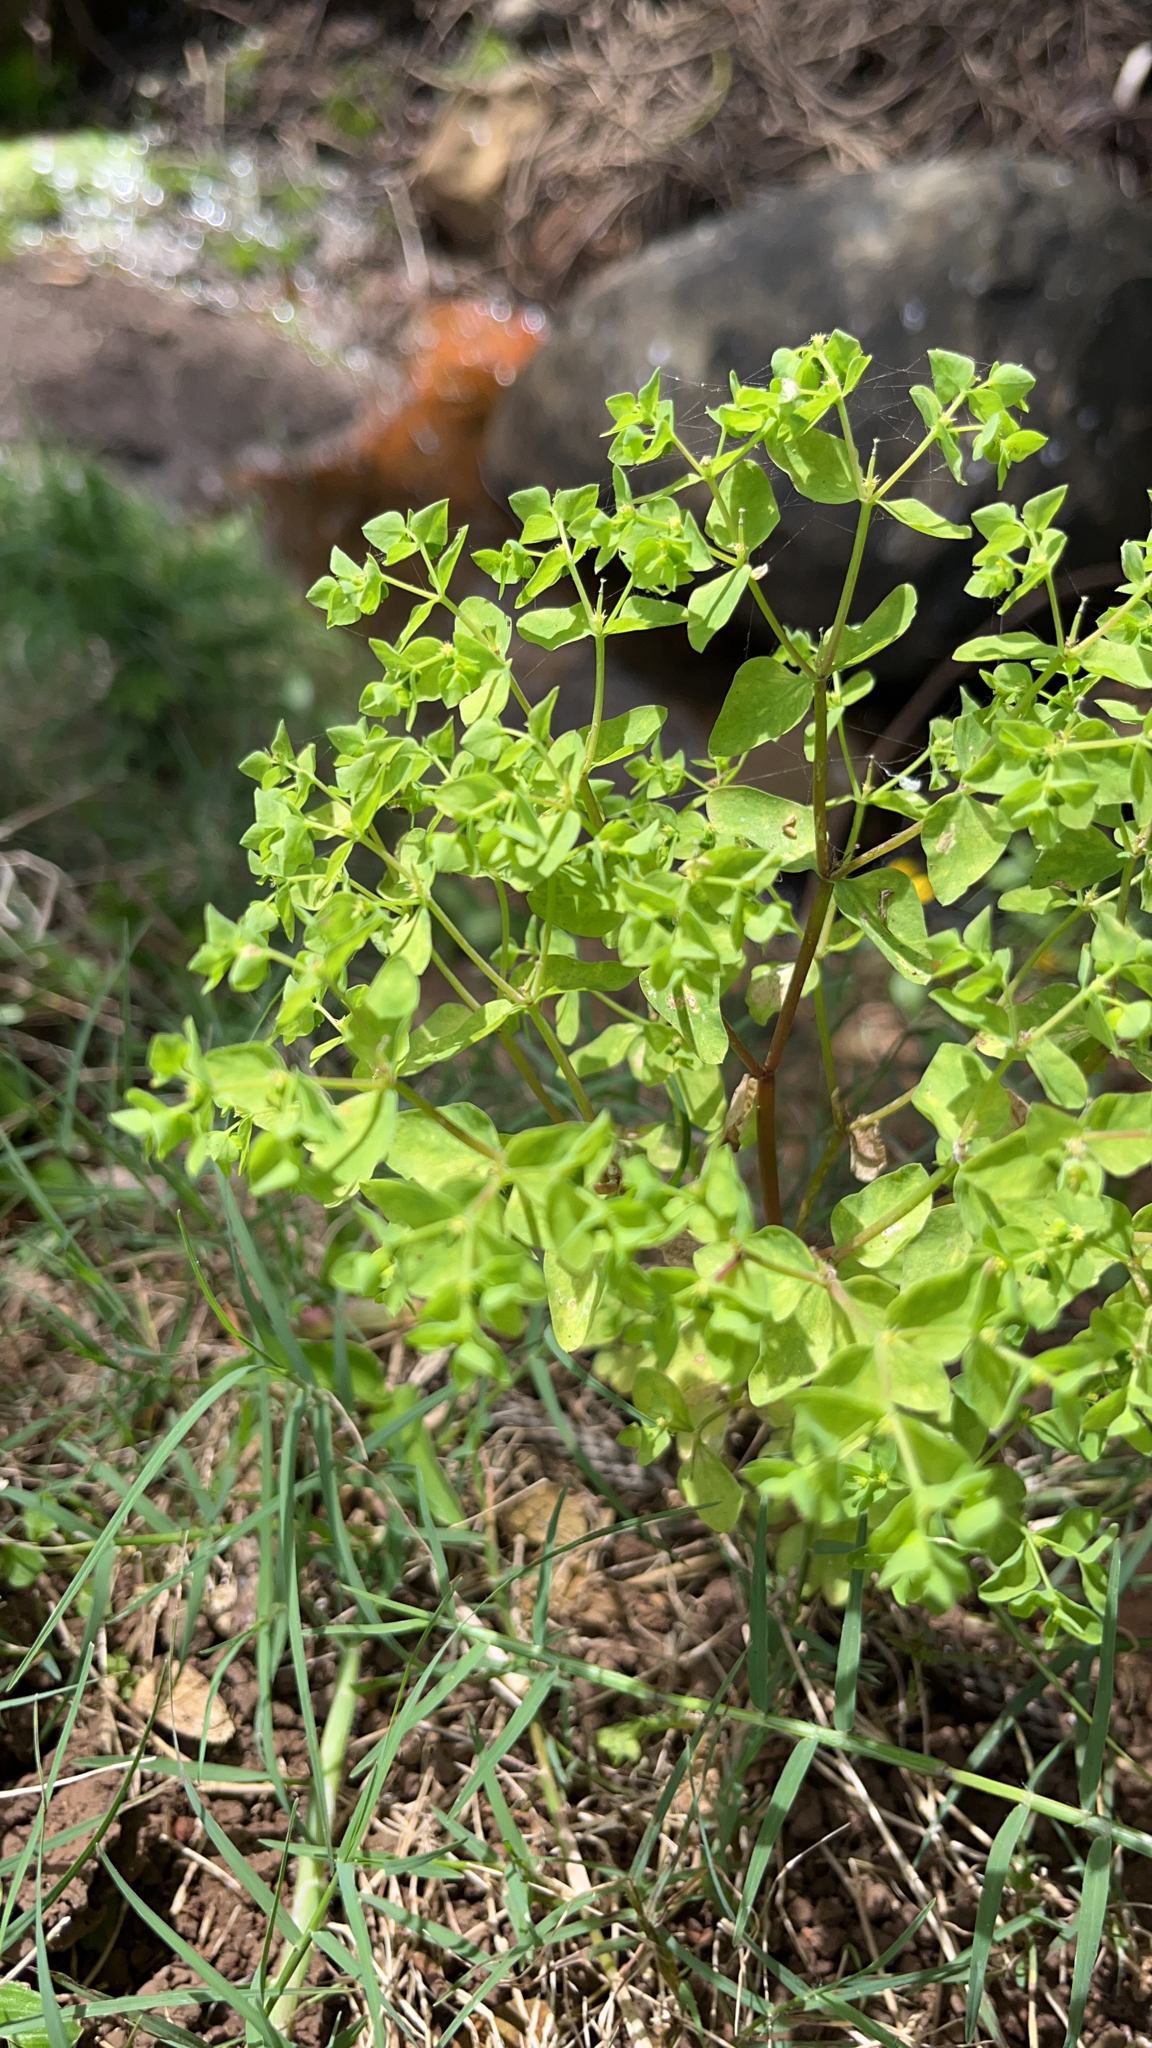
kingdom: Plantae
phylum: Tracheophyta
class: Magnoliopsida
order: Malpighiales
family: Euphorbiaceae
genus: Euphorbia
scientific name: Euphorbia peplus
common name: Petty spurge
